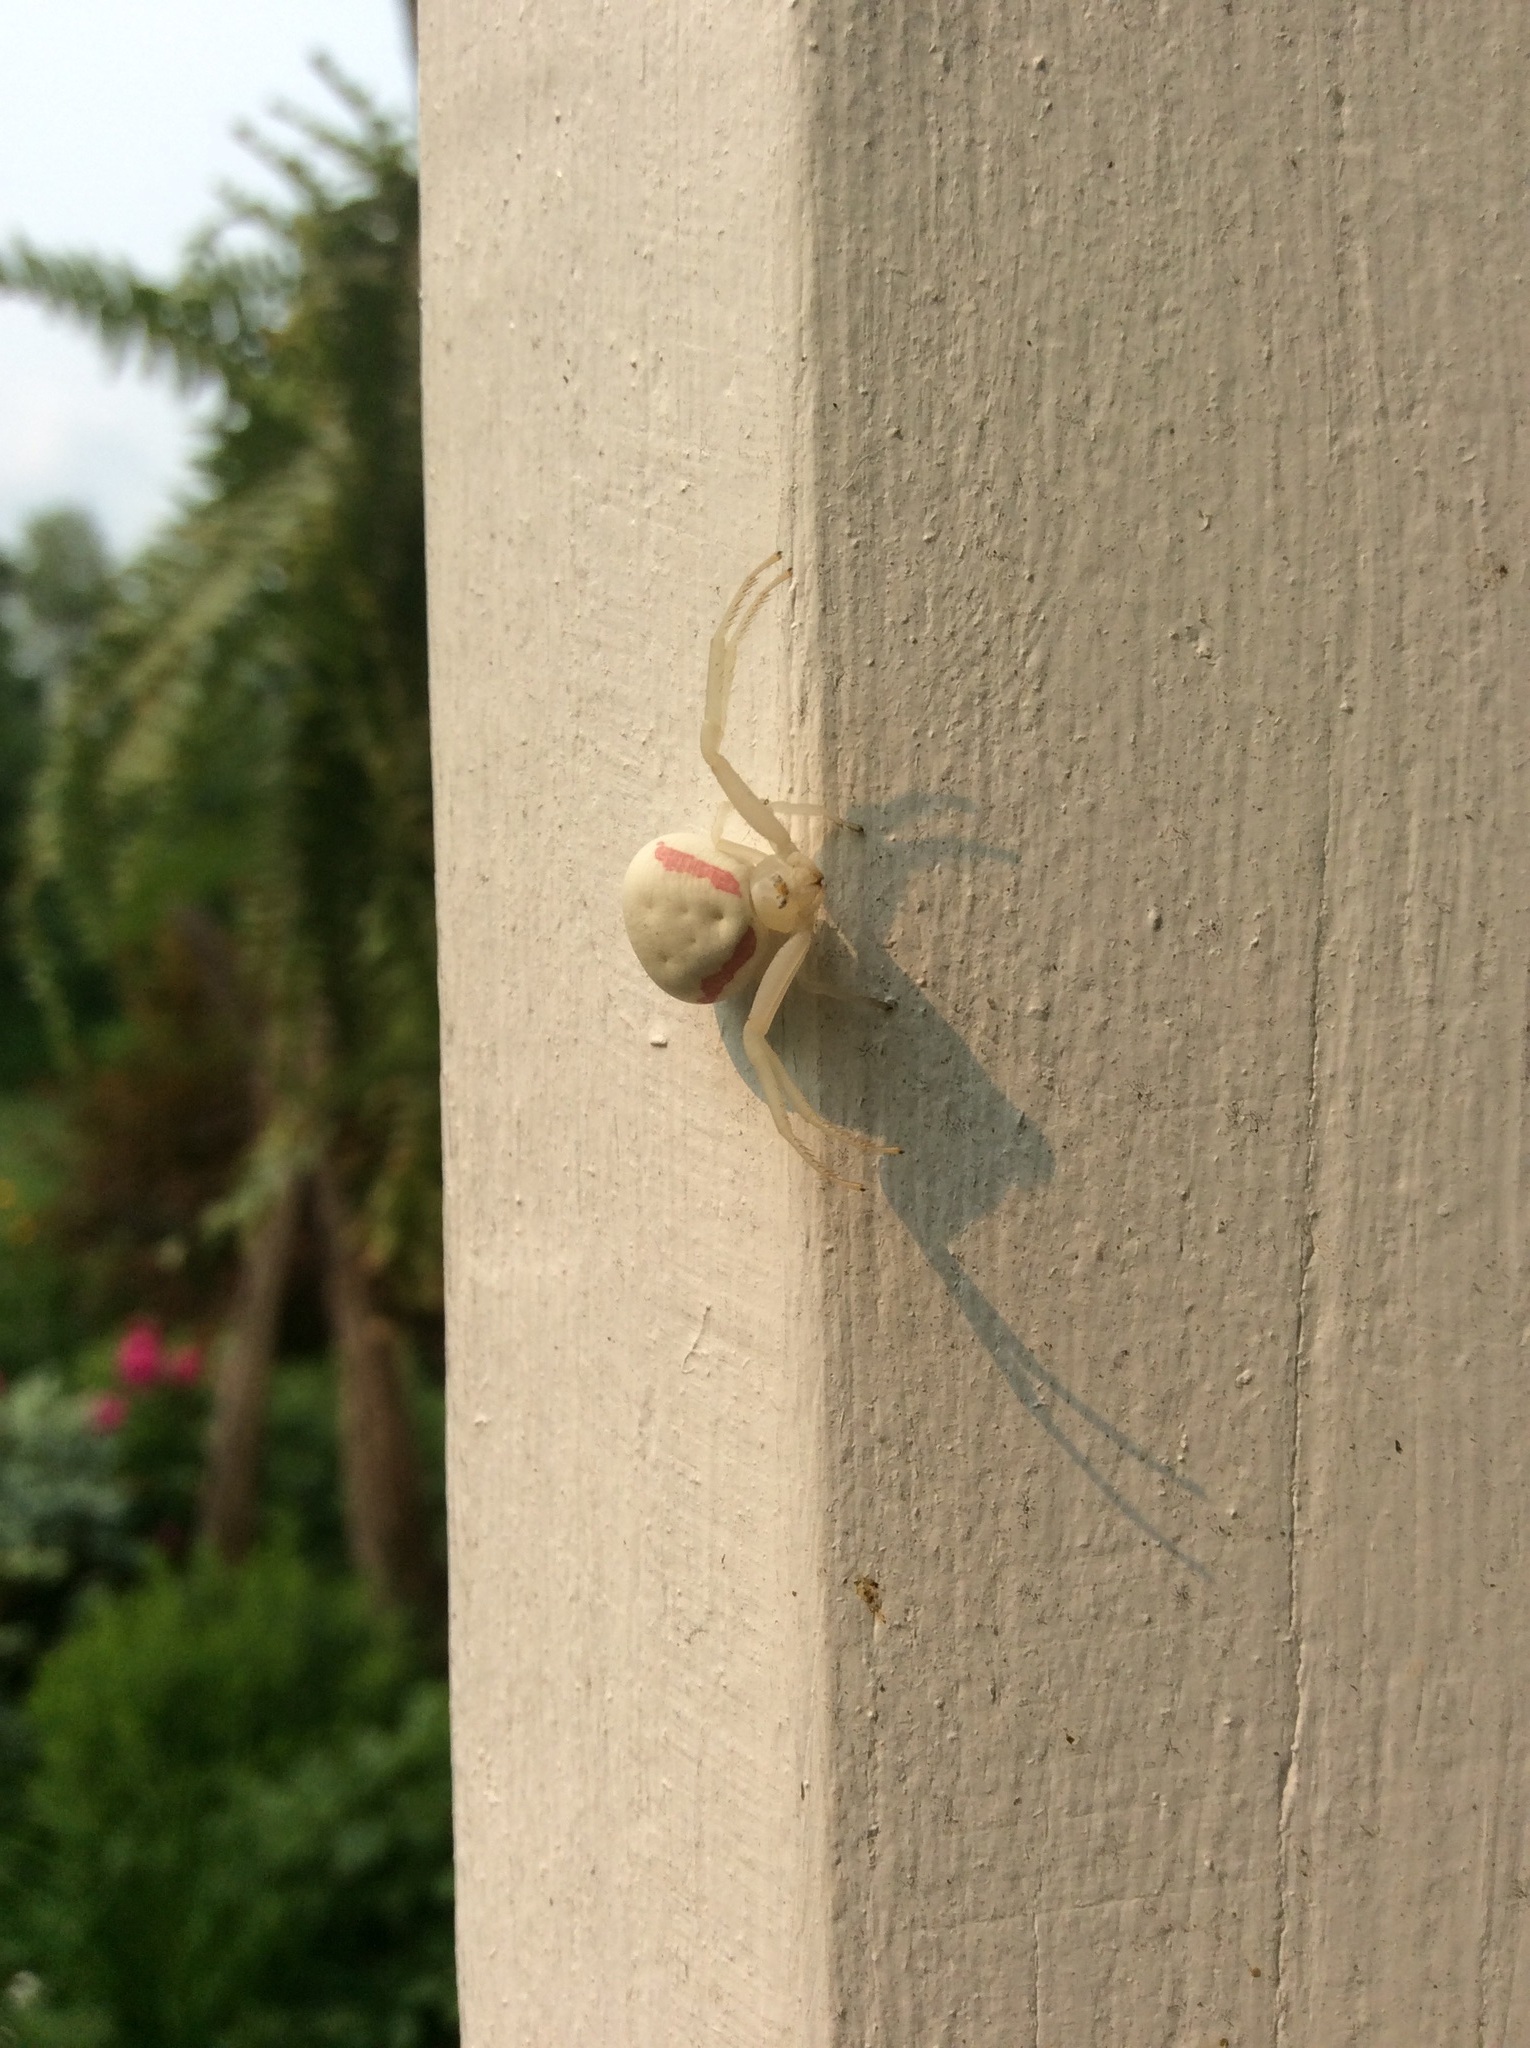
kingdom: Animalia
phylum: Arthropoda
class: Arachnida
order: Araneae
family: Thomisidae
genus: Misumena
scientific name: Misumena vatia
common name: Goldenrod crab spider
